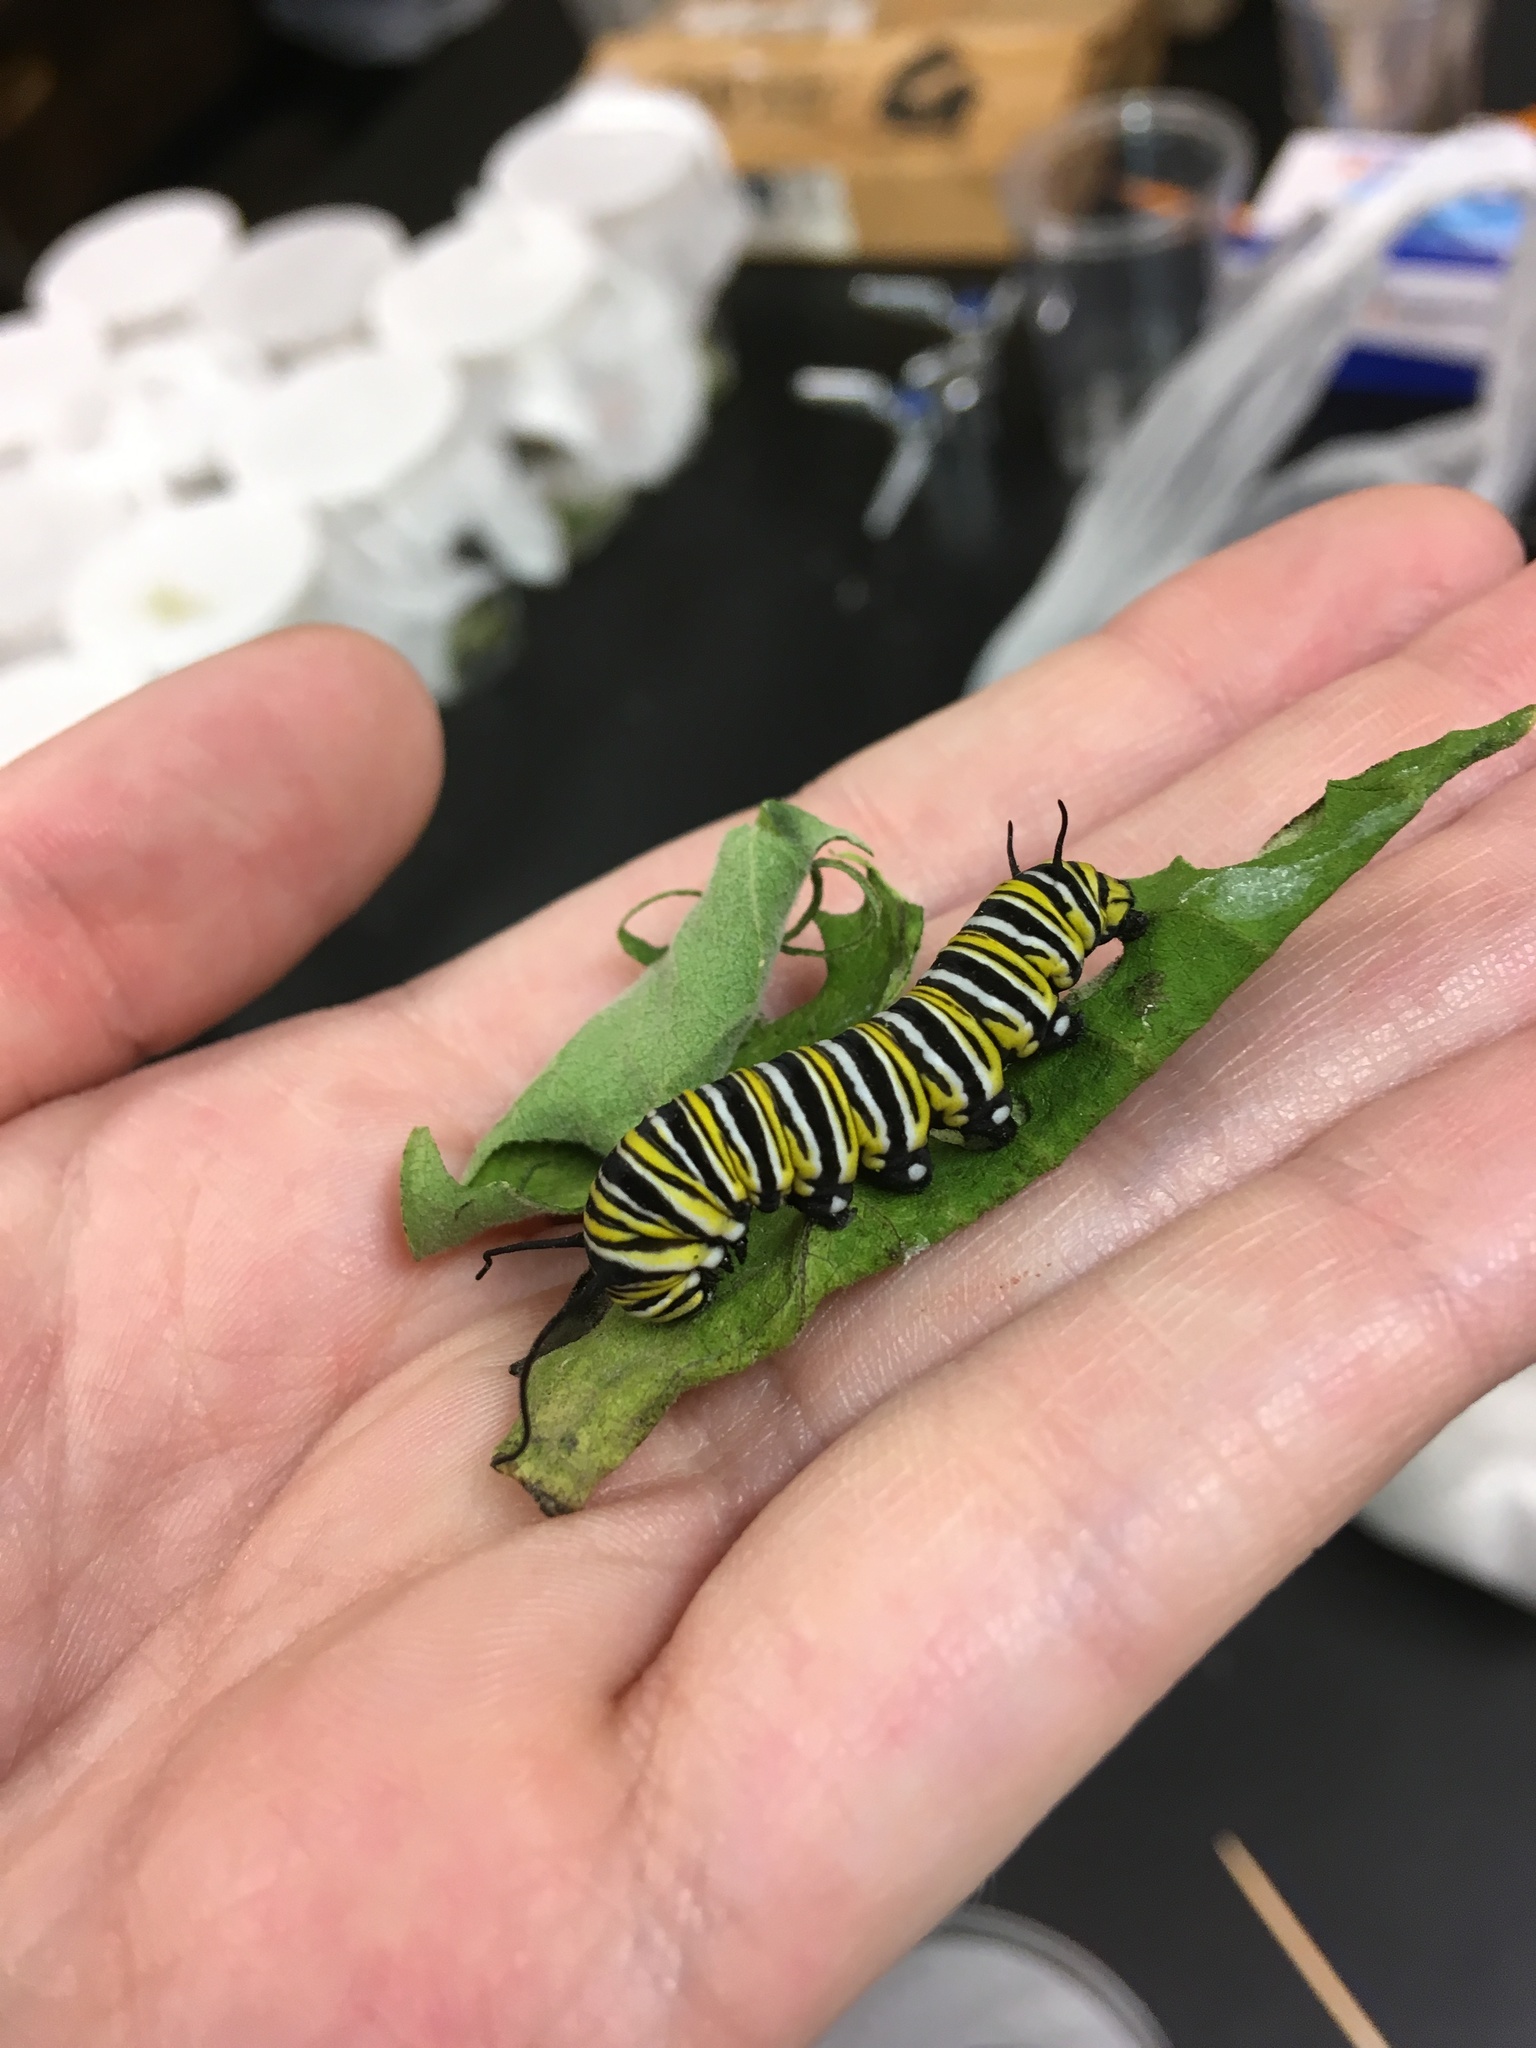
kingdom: Animalia
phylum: Arthropoda
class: Insecta
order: Lepidoptera
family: Nymphalidae
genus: Danaus
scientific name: Danaus plexippus
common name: Monarch
